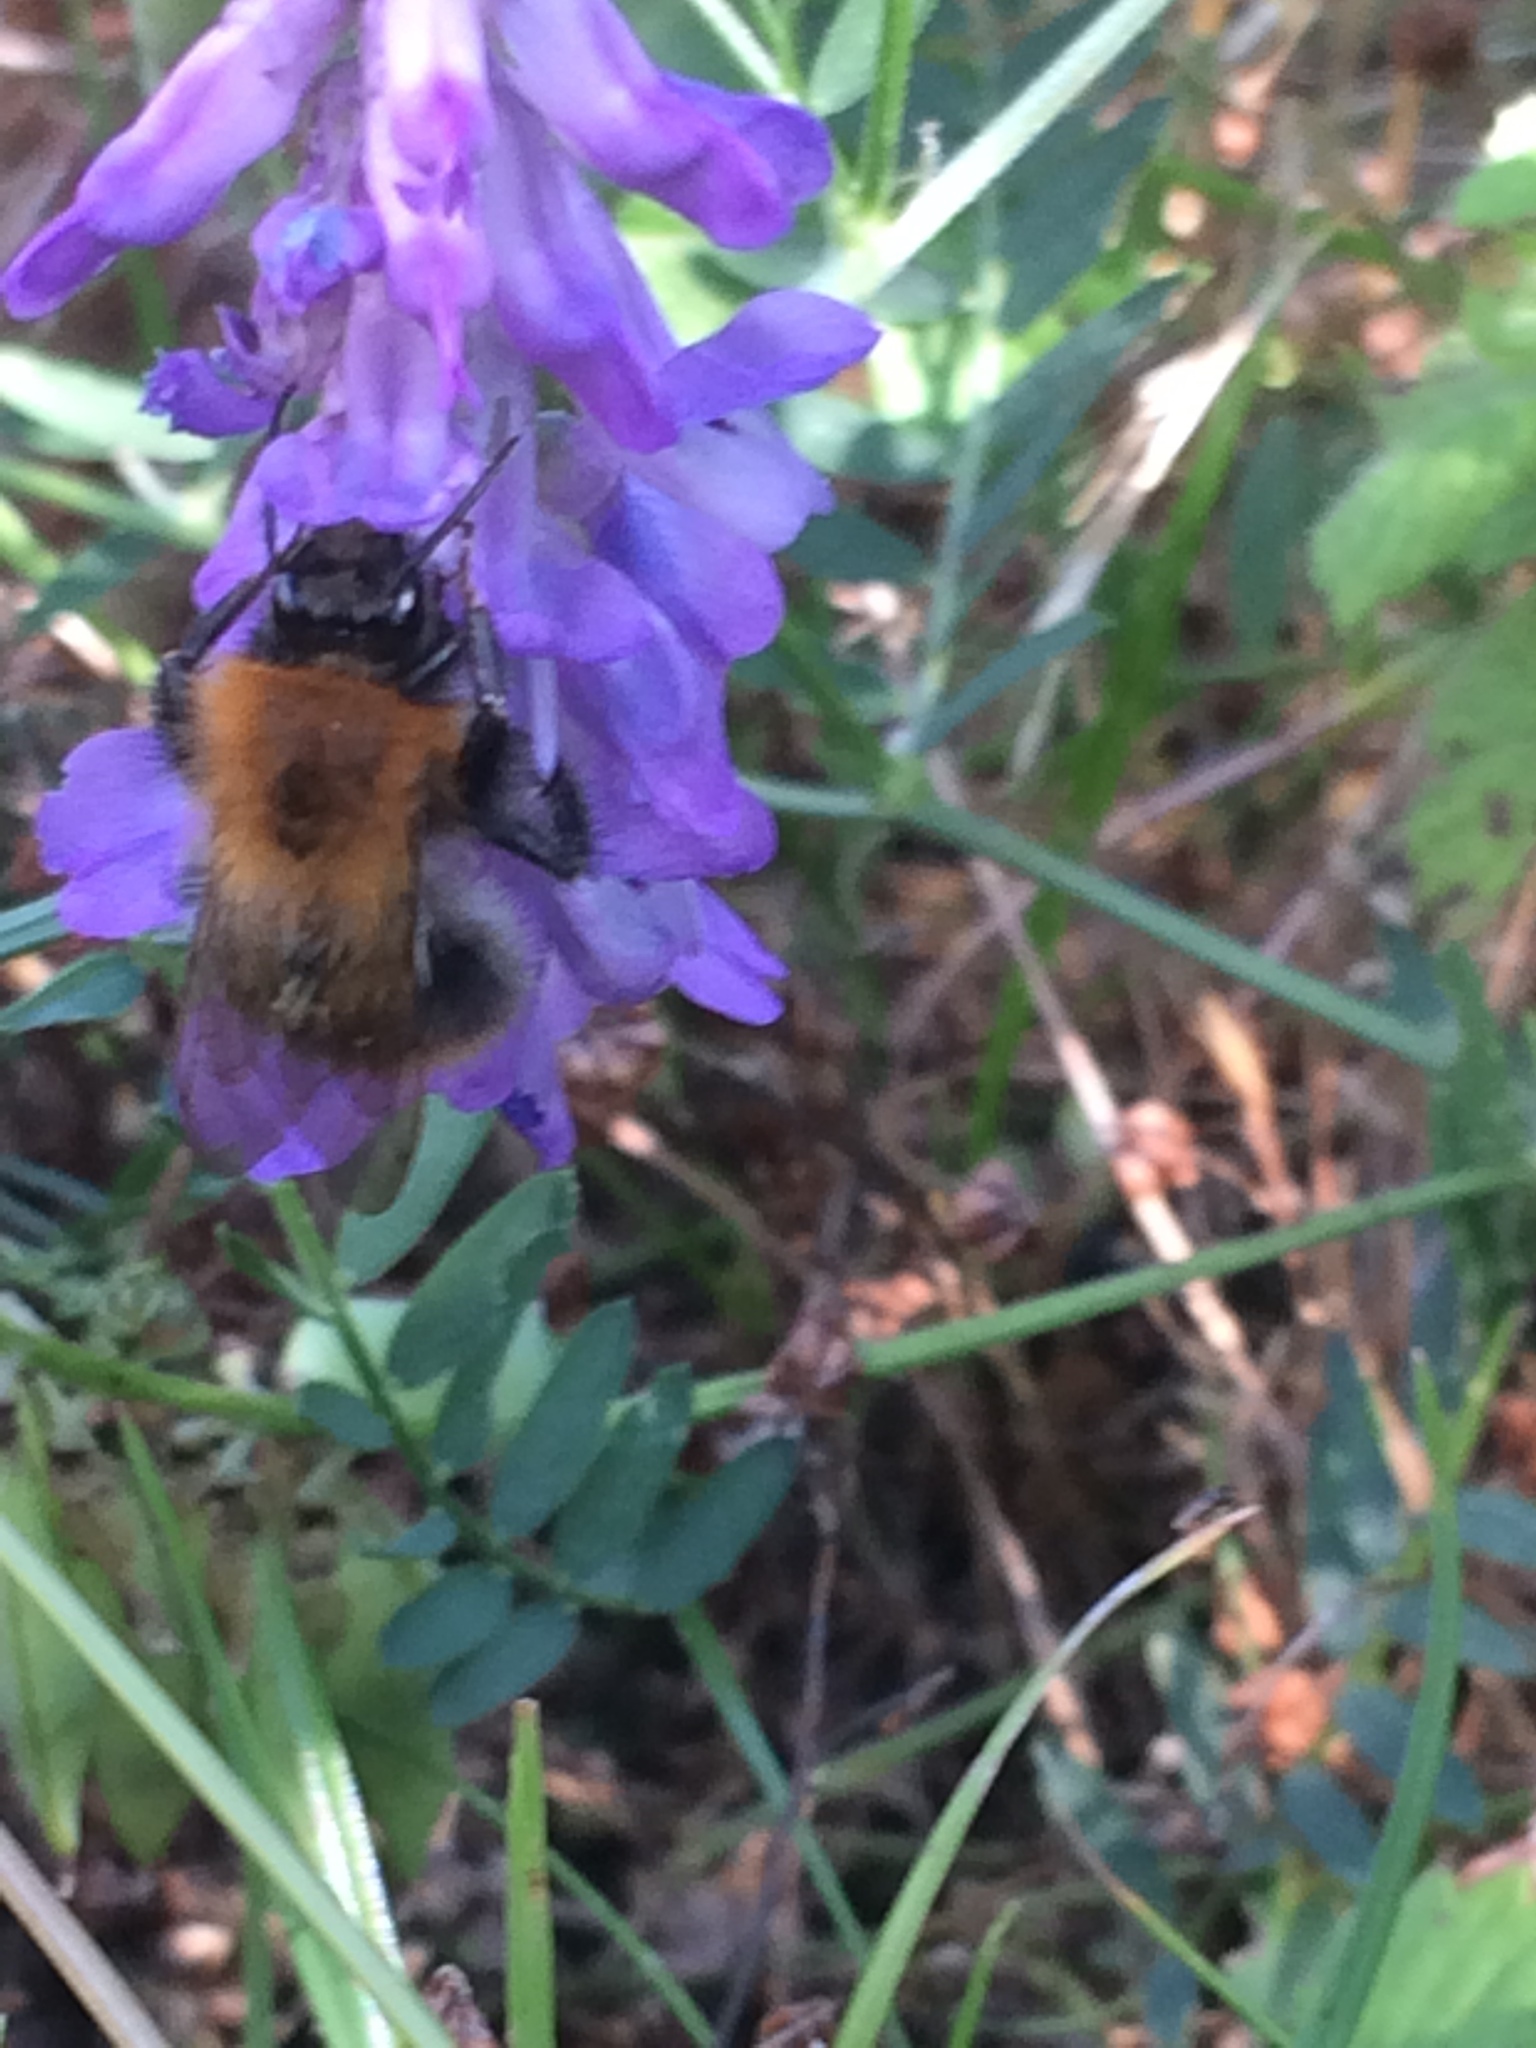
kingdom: Animalia
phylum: Arthropoda
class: Insecta
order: Hymenoptera
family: Apidae
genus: Bombus
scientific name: Bombus pascuorum
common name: Common carder bee
